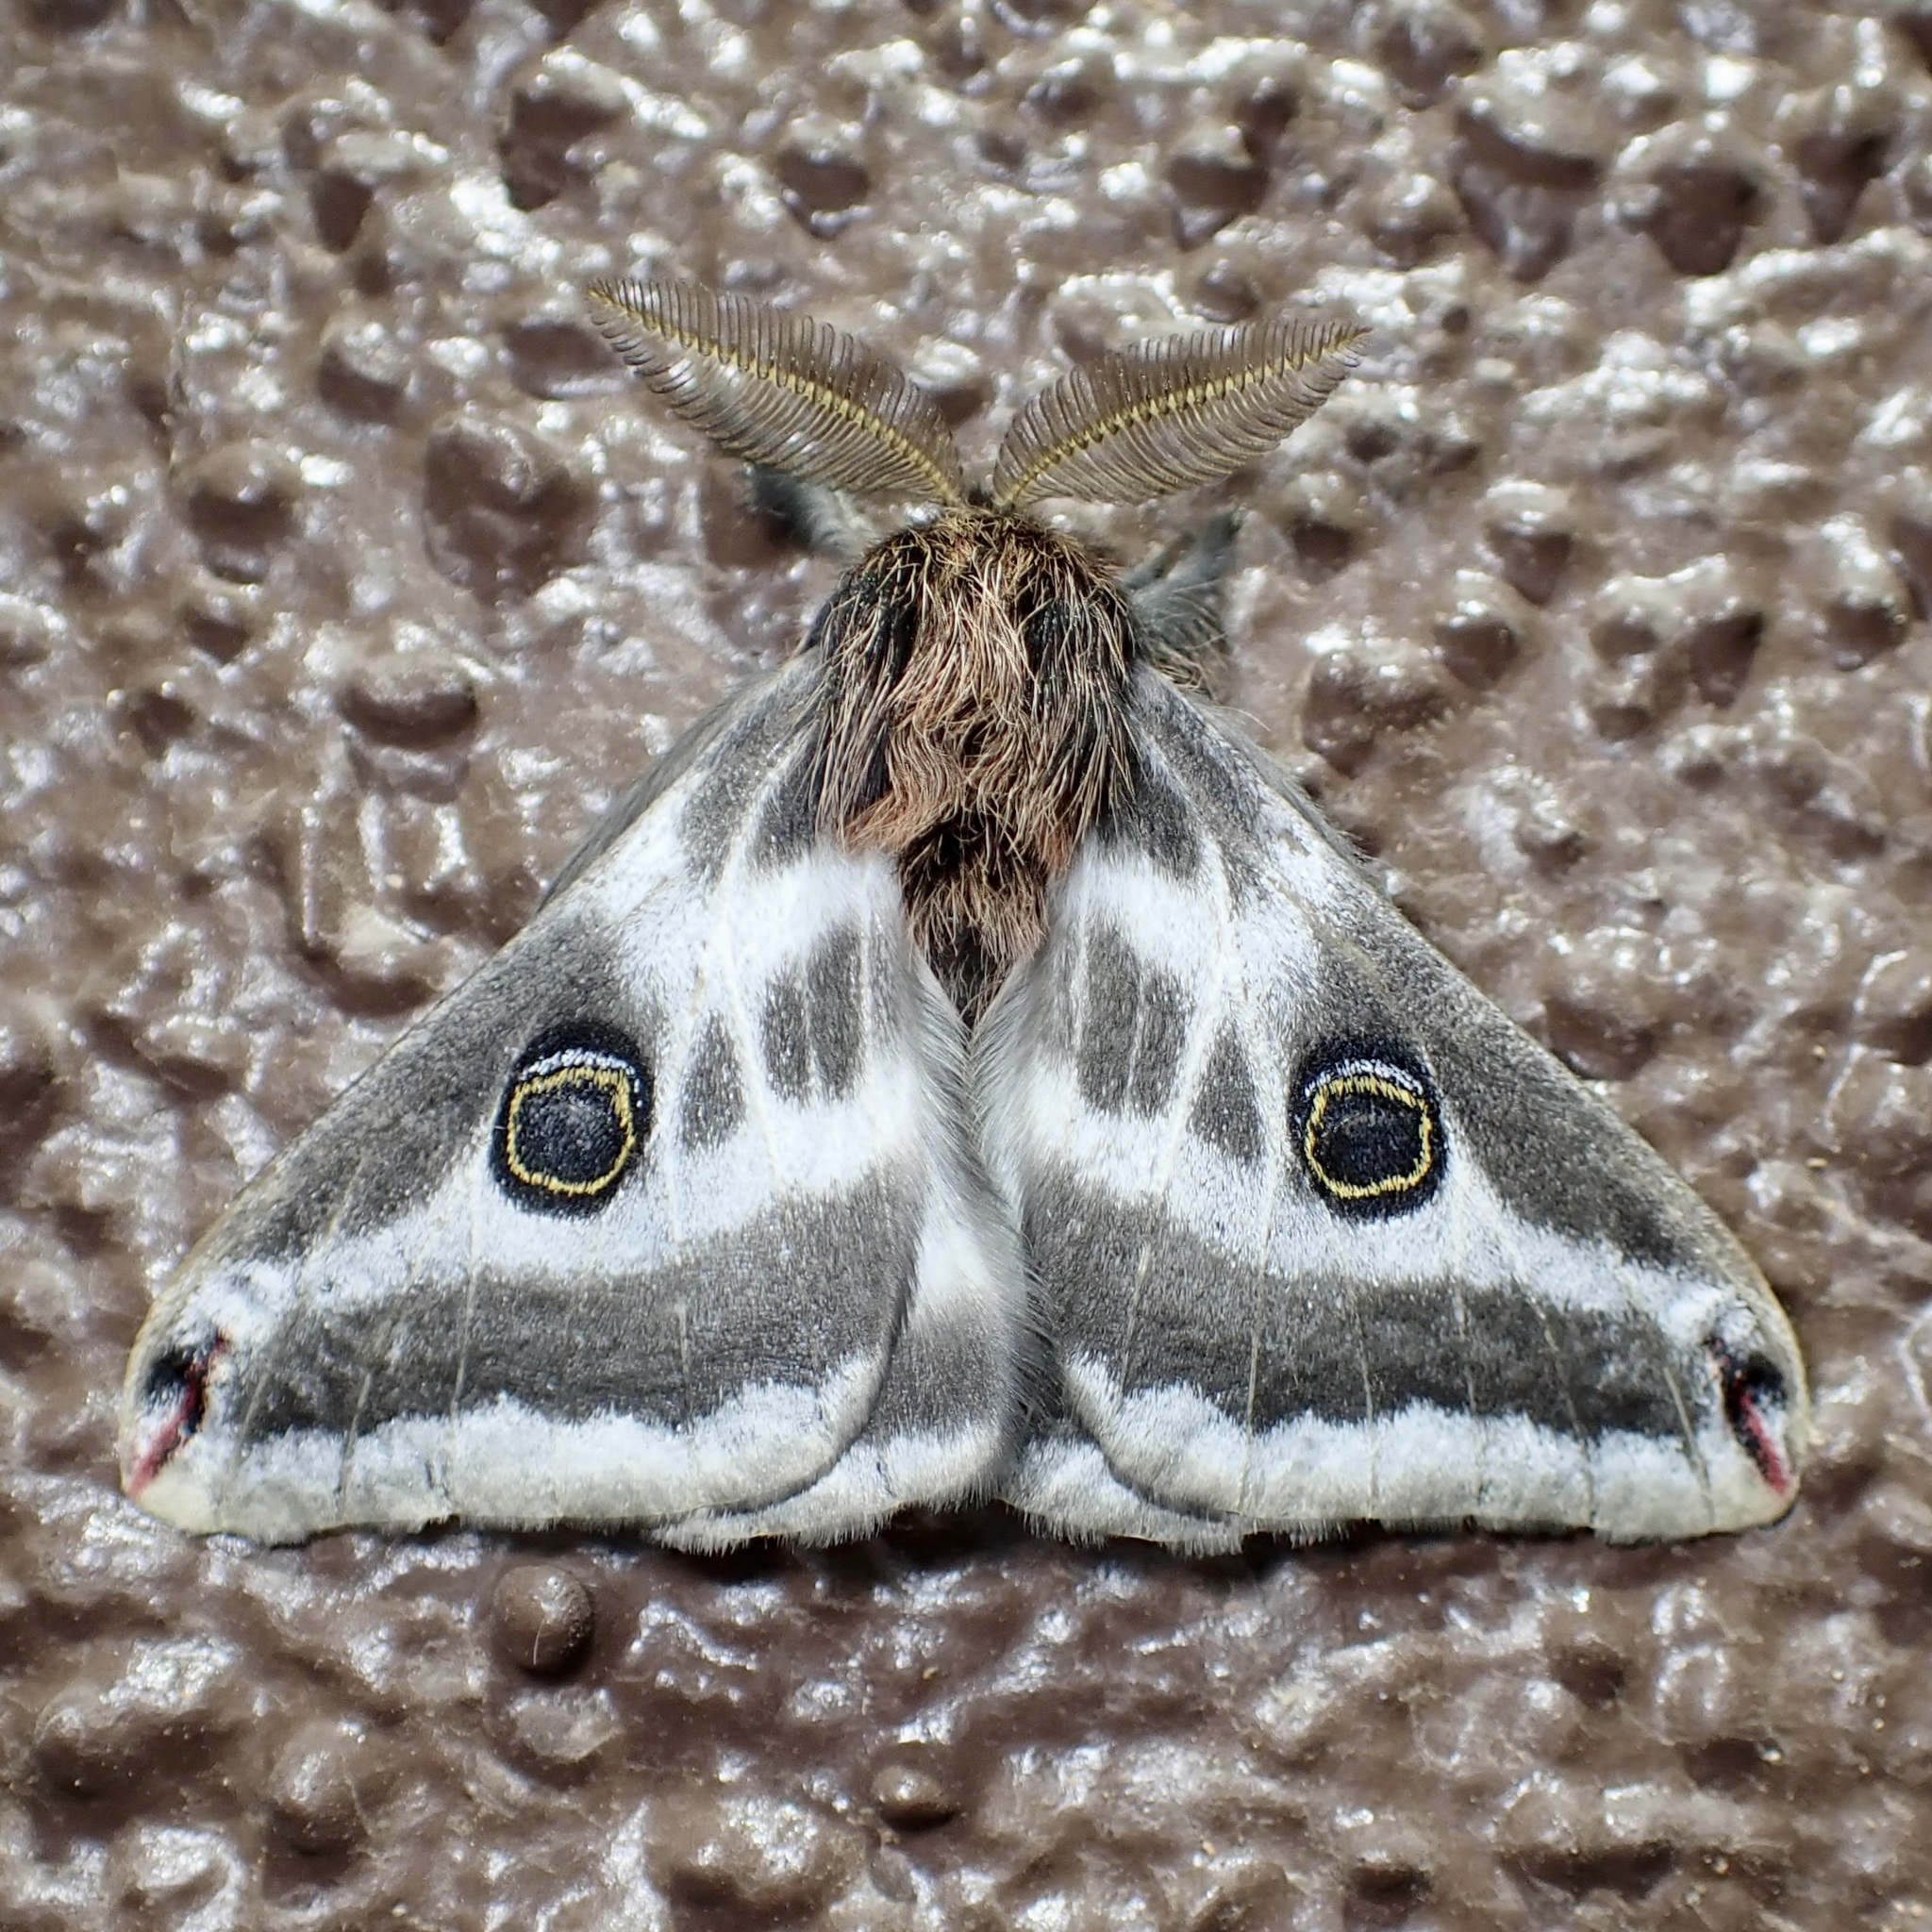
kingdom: Animalia
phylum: Arthropoda
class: Insecta
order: Lepidoptera
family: Saturniidae
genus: Saturnia
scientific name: Saturnia anona
